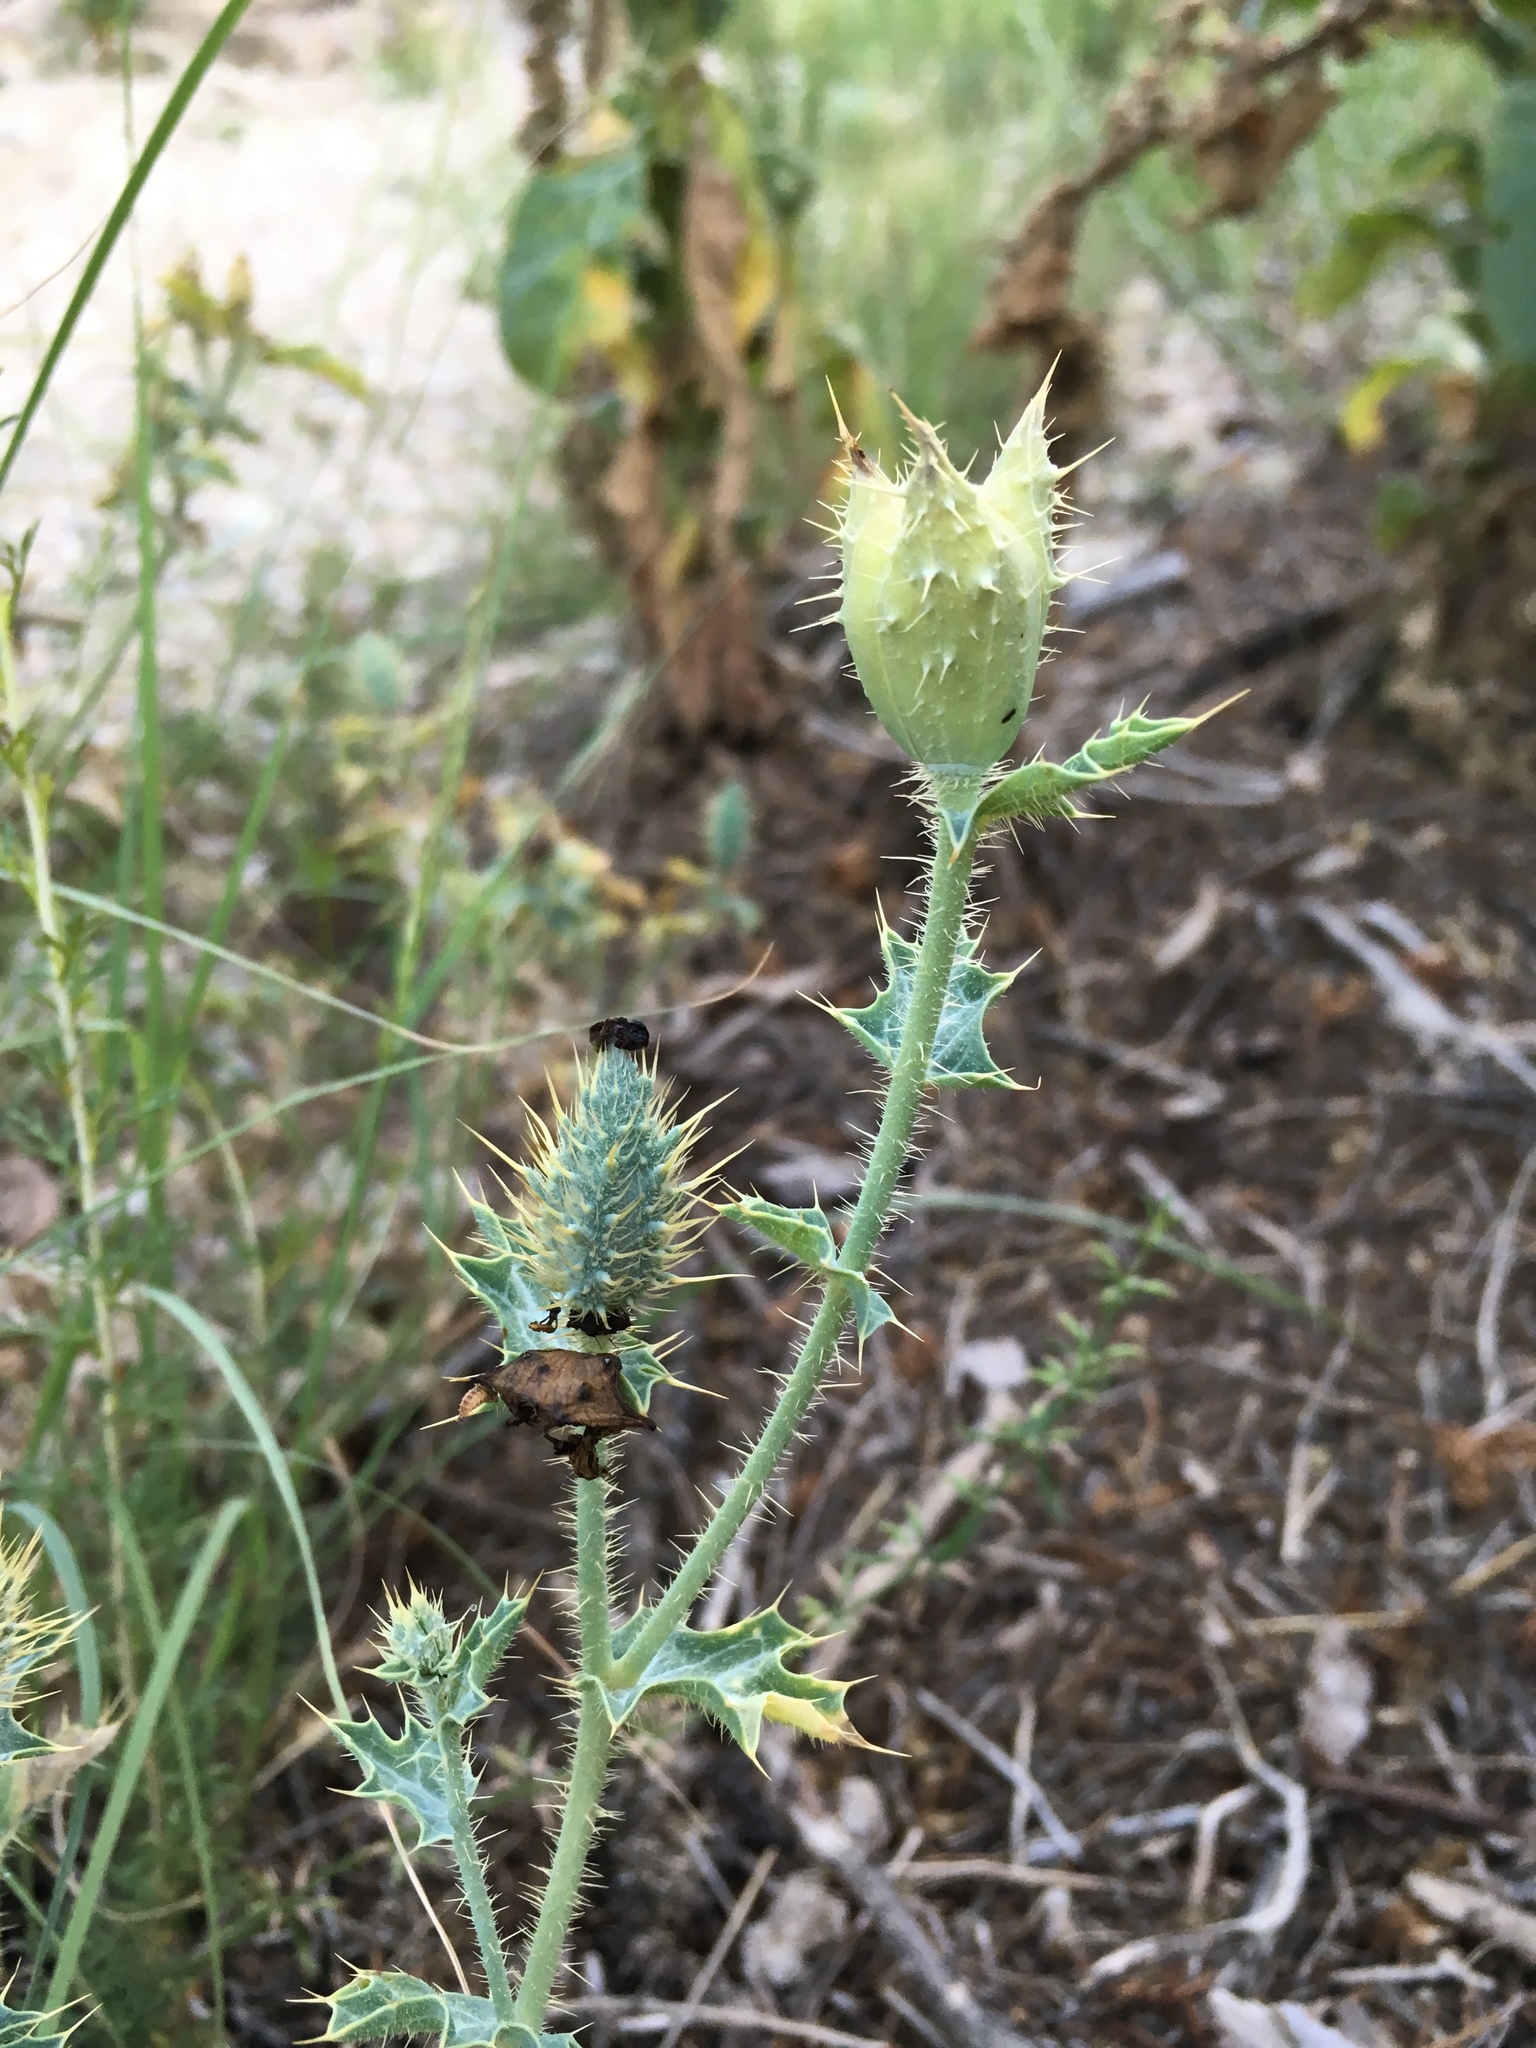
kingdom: Plantae
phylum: Tracheophyta
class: Magnoliopsida
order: Ranunculales
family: Papaveraceae
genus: Argemone
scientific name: Argemone squarrosa
